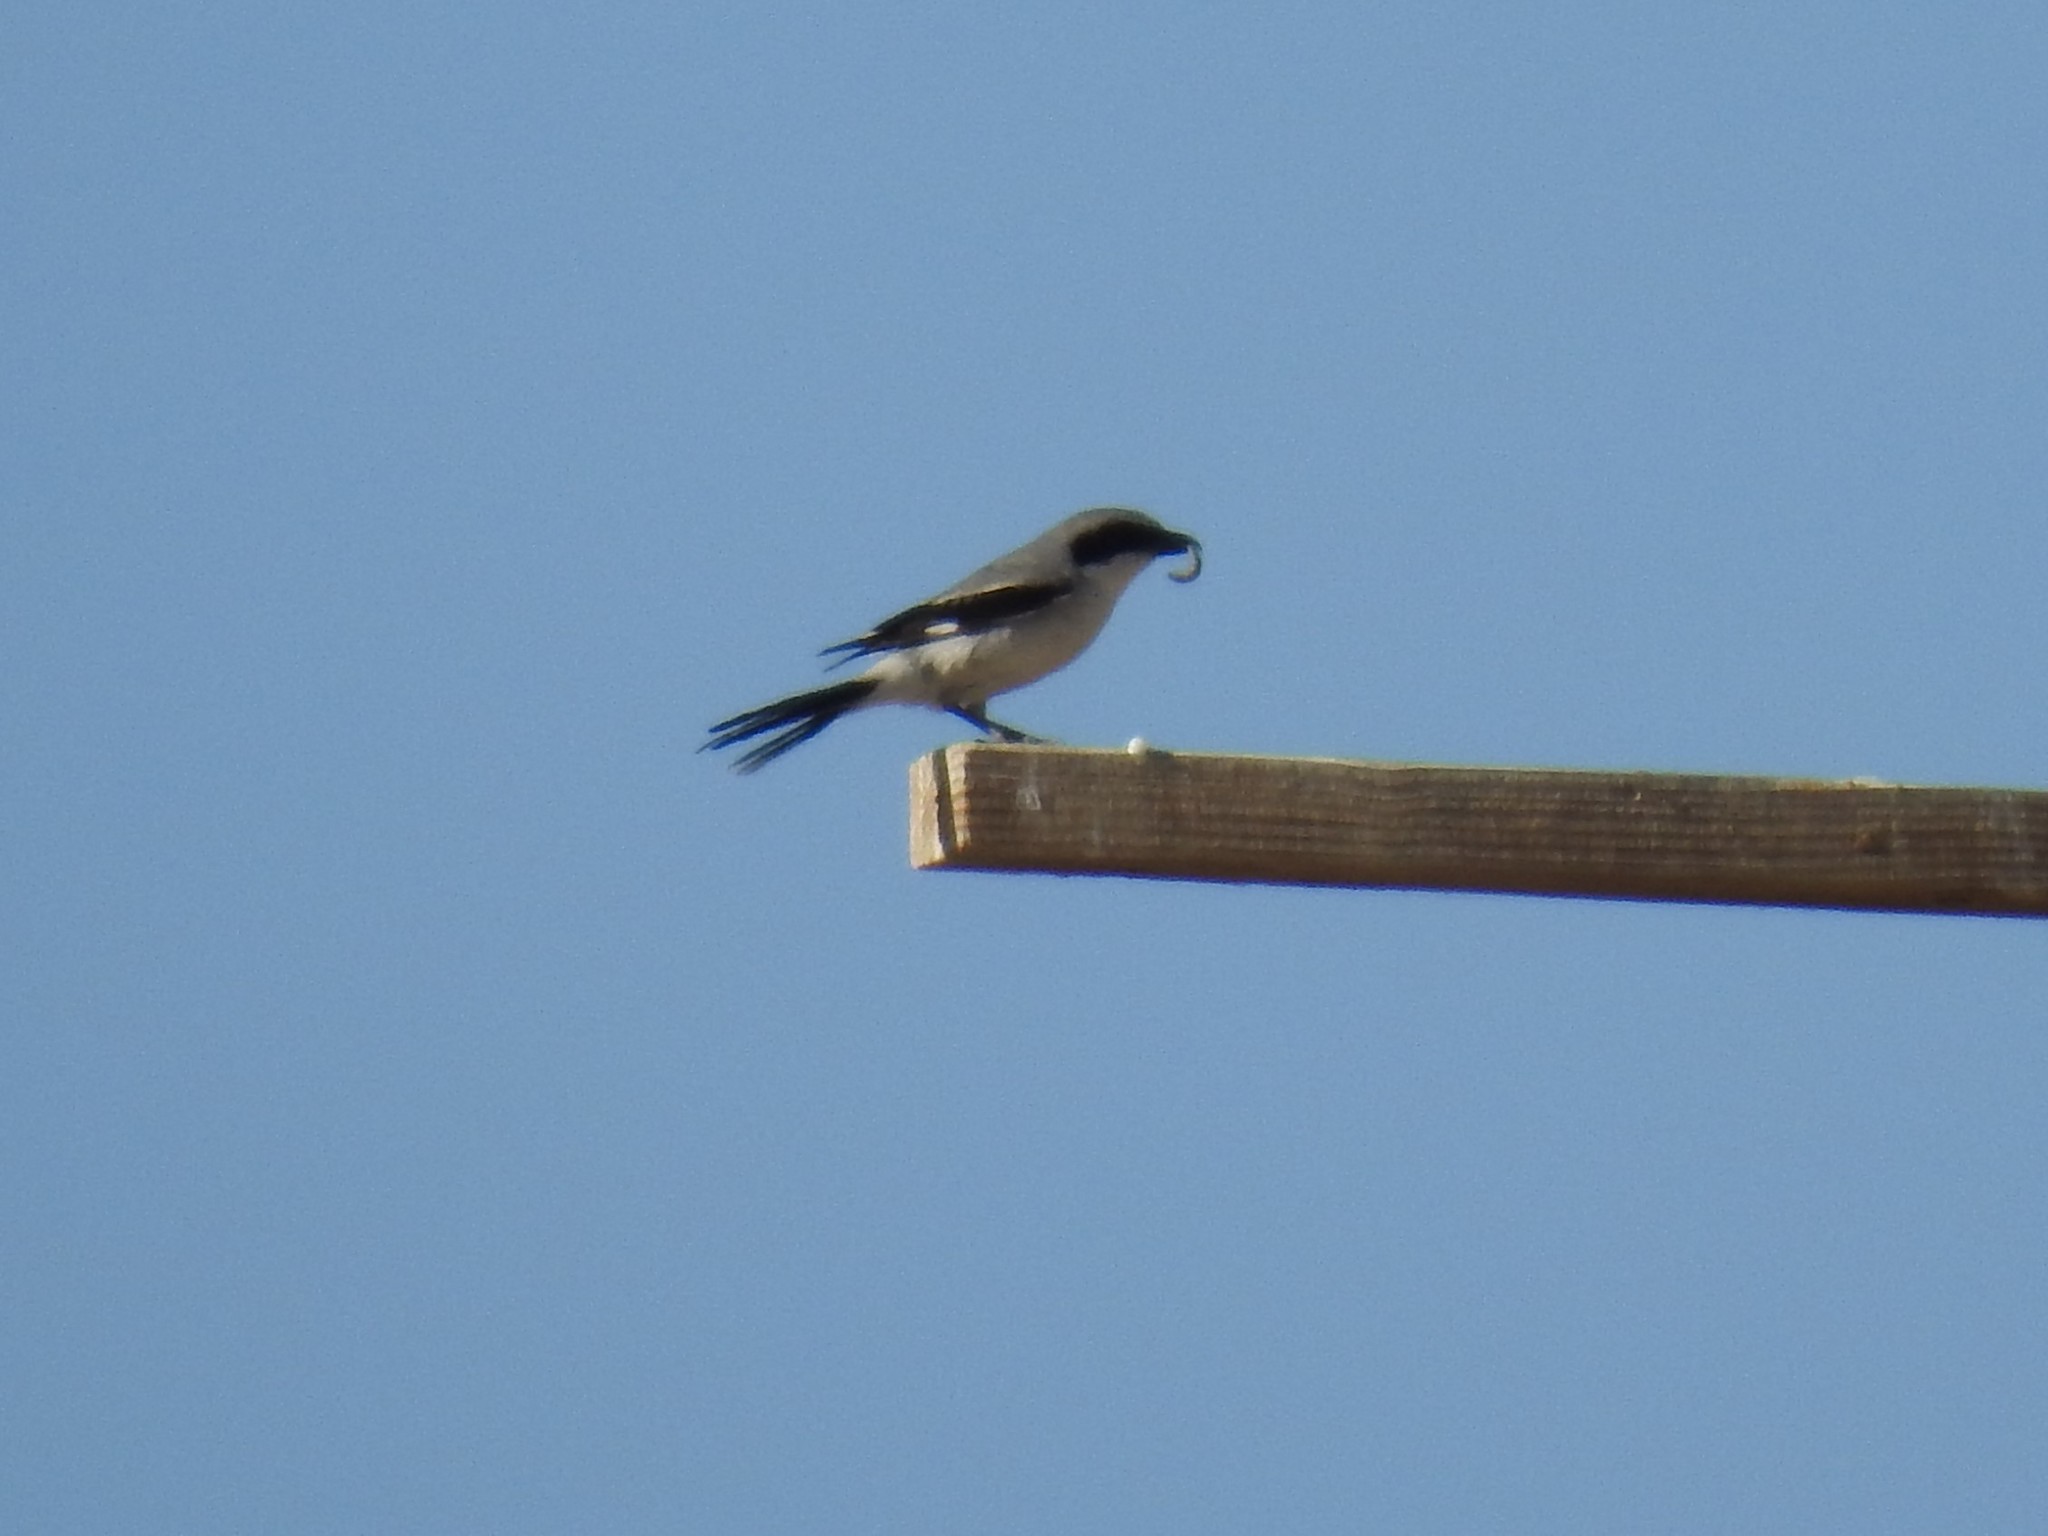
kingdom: Animalia
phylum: Chordata
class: Aves
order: Passeriformes
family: Laniidae
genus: Lanius
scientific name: Lanius ludovicianus
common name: Loggerhead shrike
